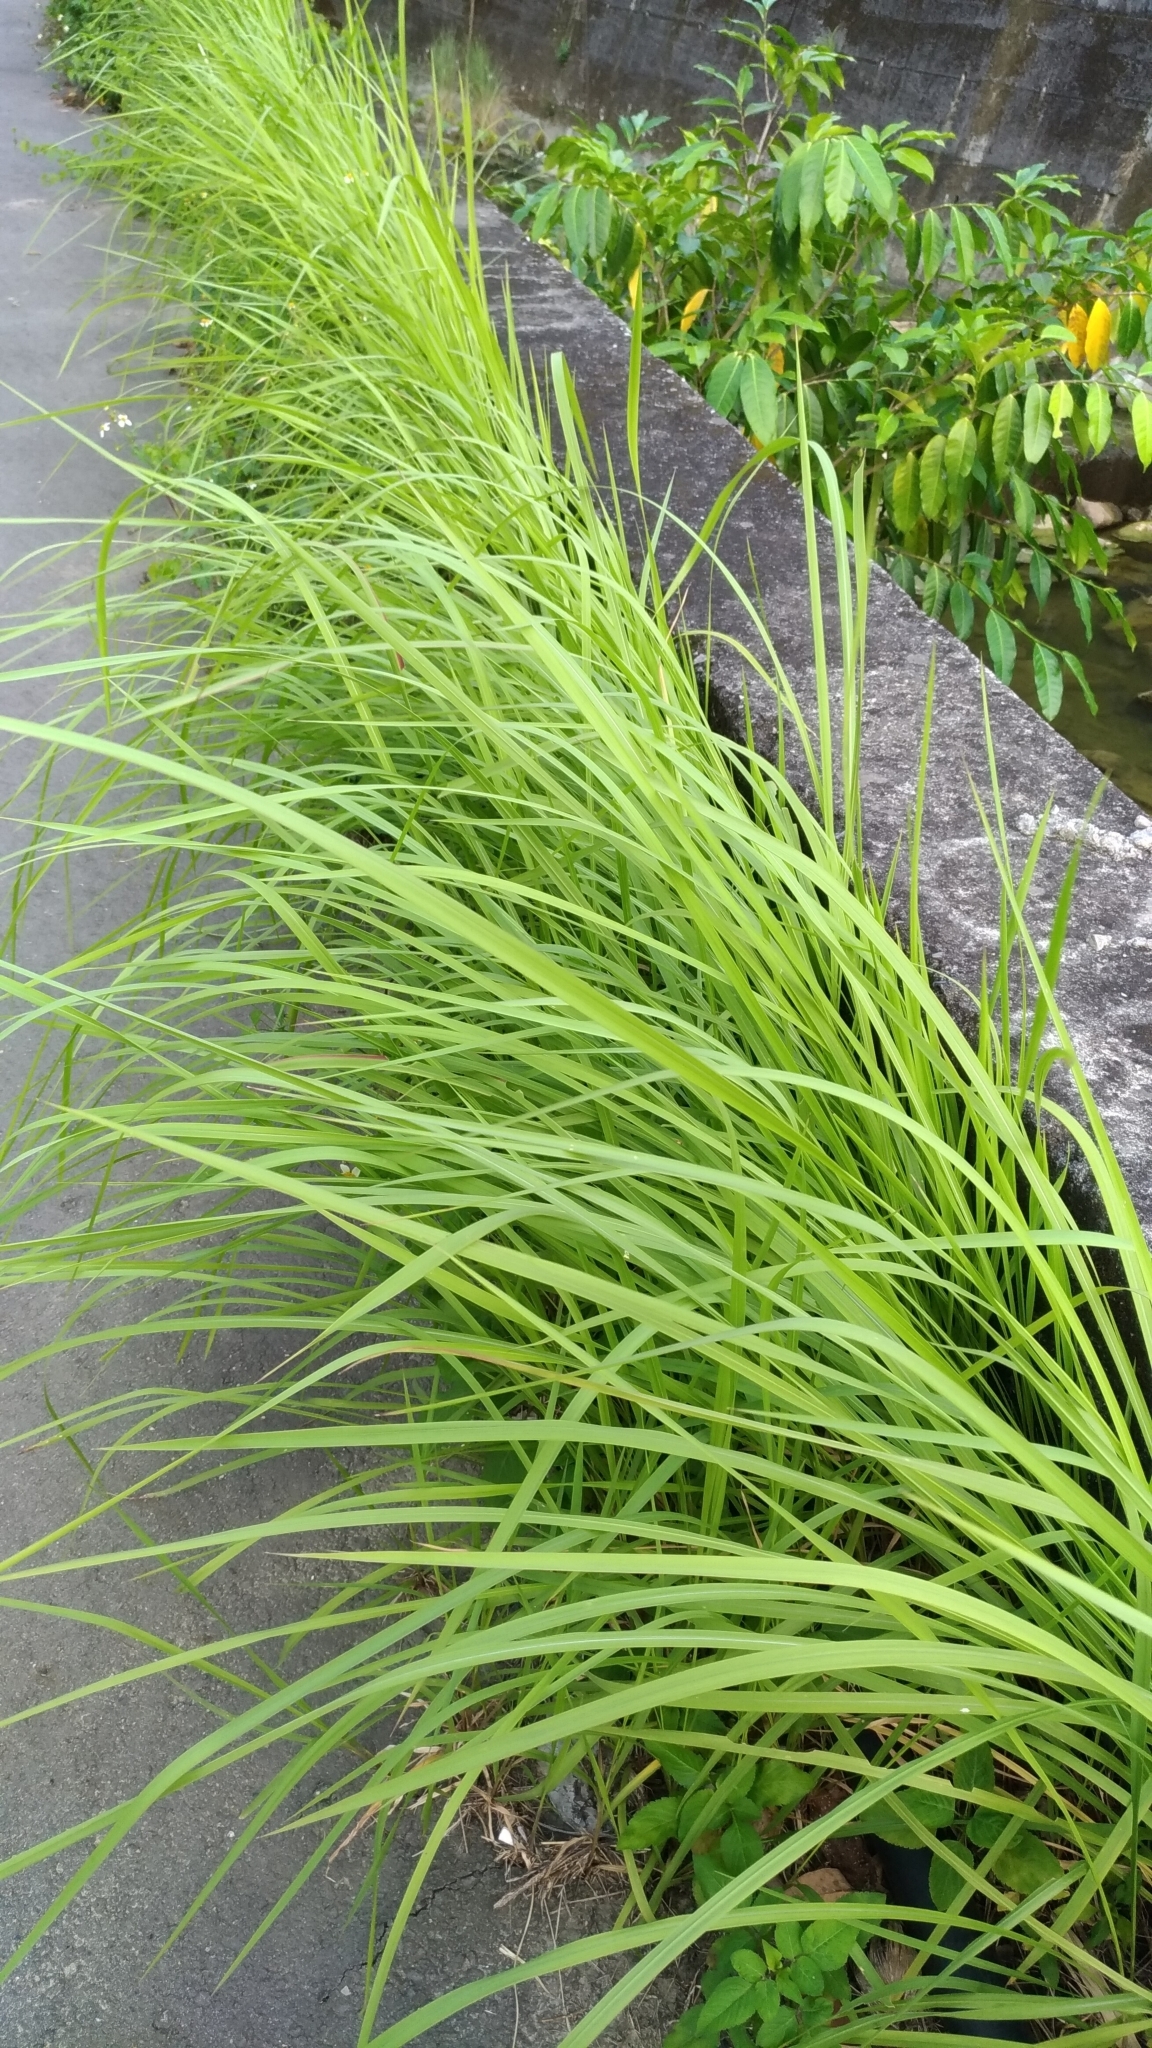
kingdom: Plantae
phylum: Tracheophyta
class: Liliopsida
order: Poales
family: Poaceae
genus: Imperata
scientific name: Imperata cylindrica
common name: Cogongrass
